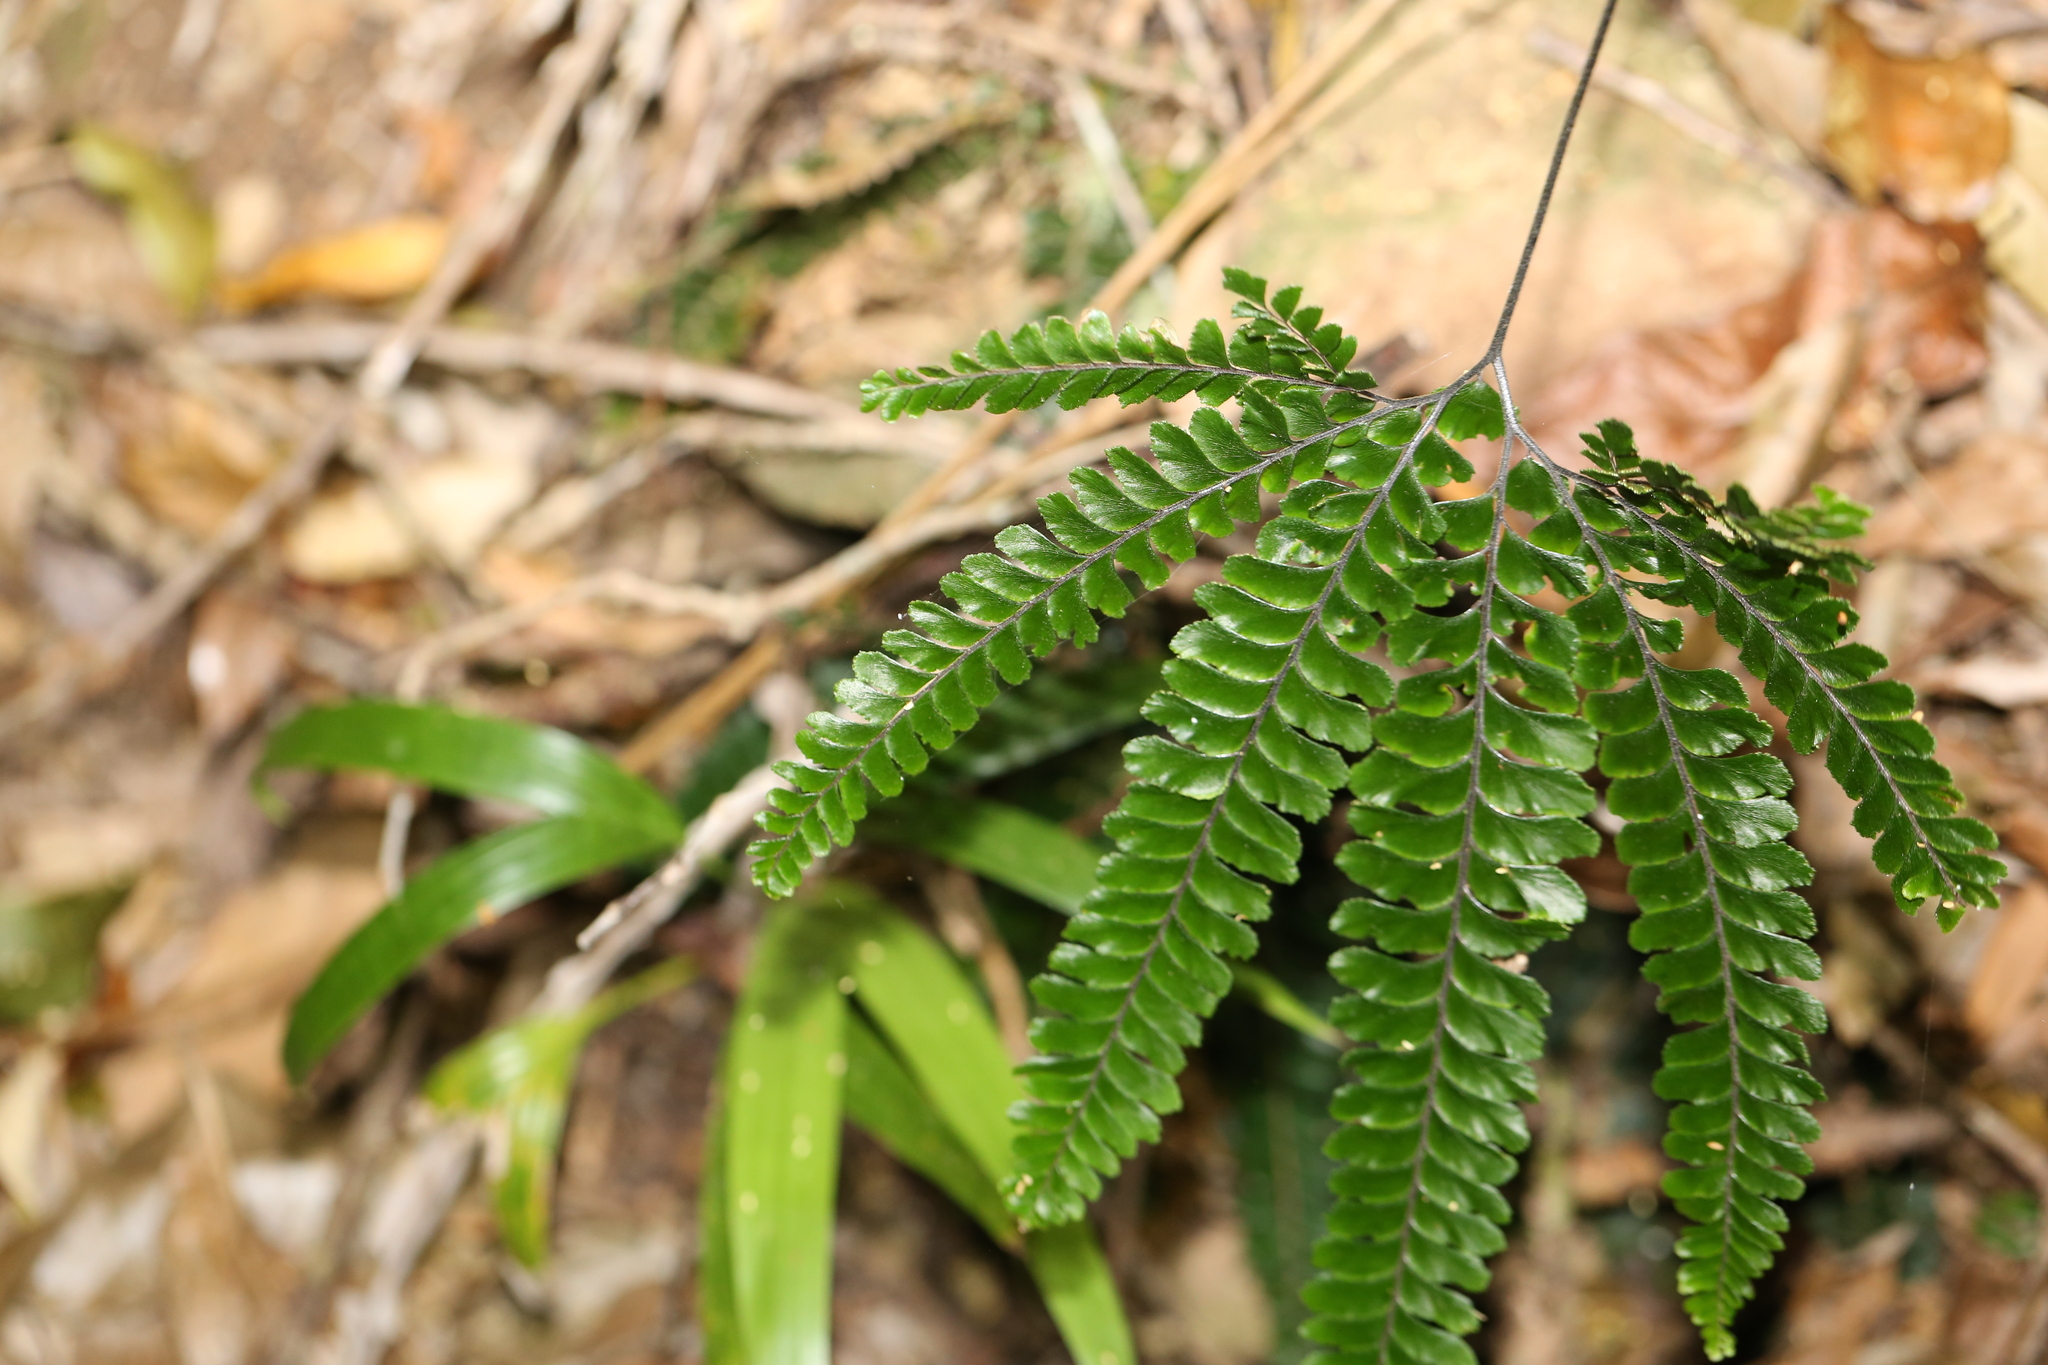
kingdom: Plantae
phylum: Tracheophyta
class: Polypodiopsida
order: Polypodiales
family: Pteridaceae
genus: Adiantum
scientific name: Adiantum hispidulum
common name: Rough maidenhair
